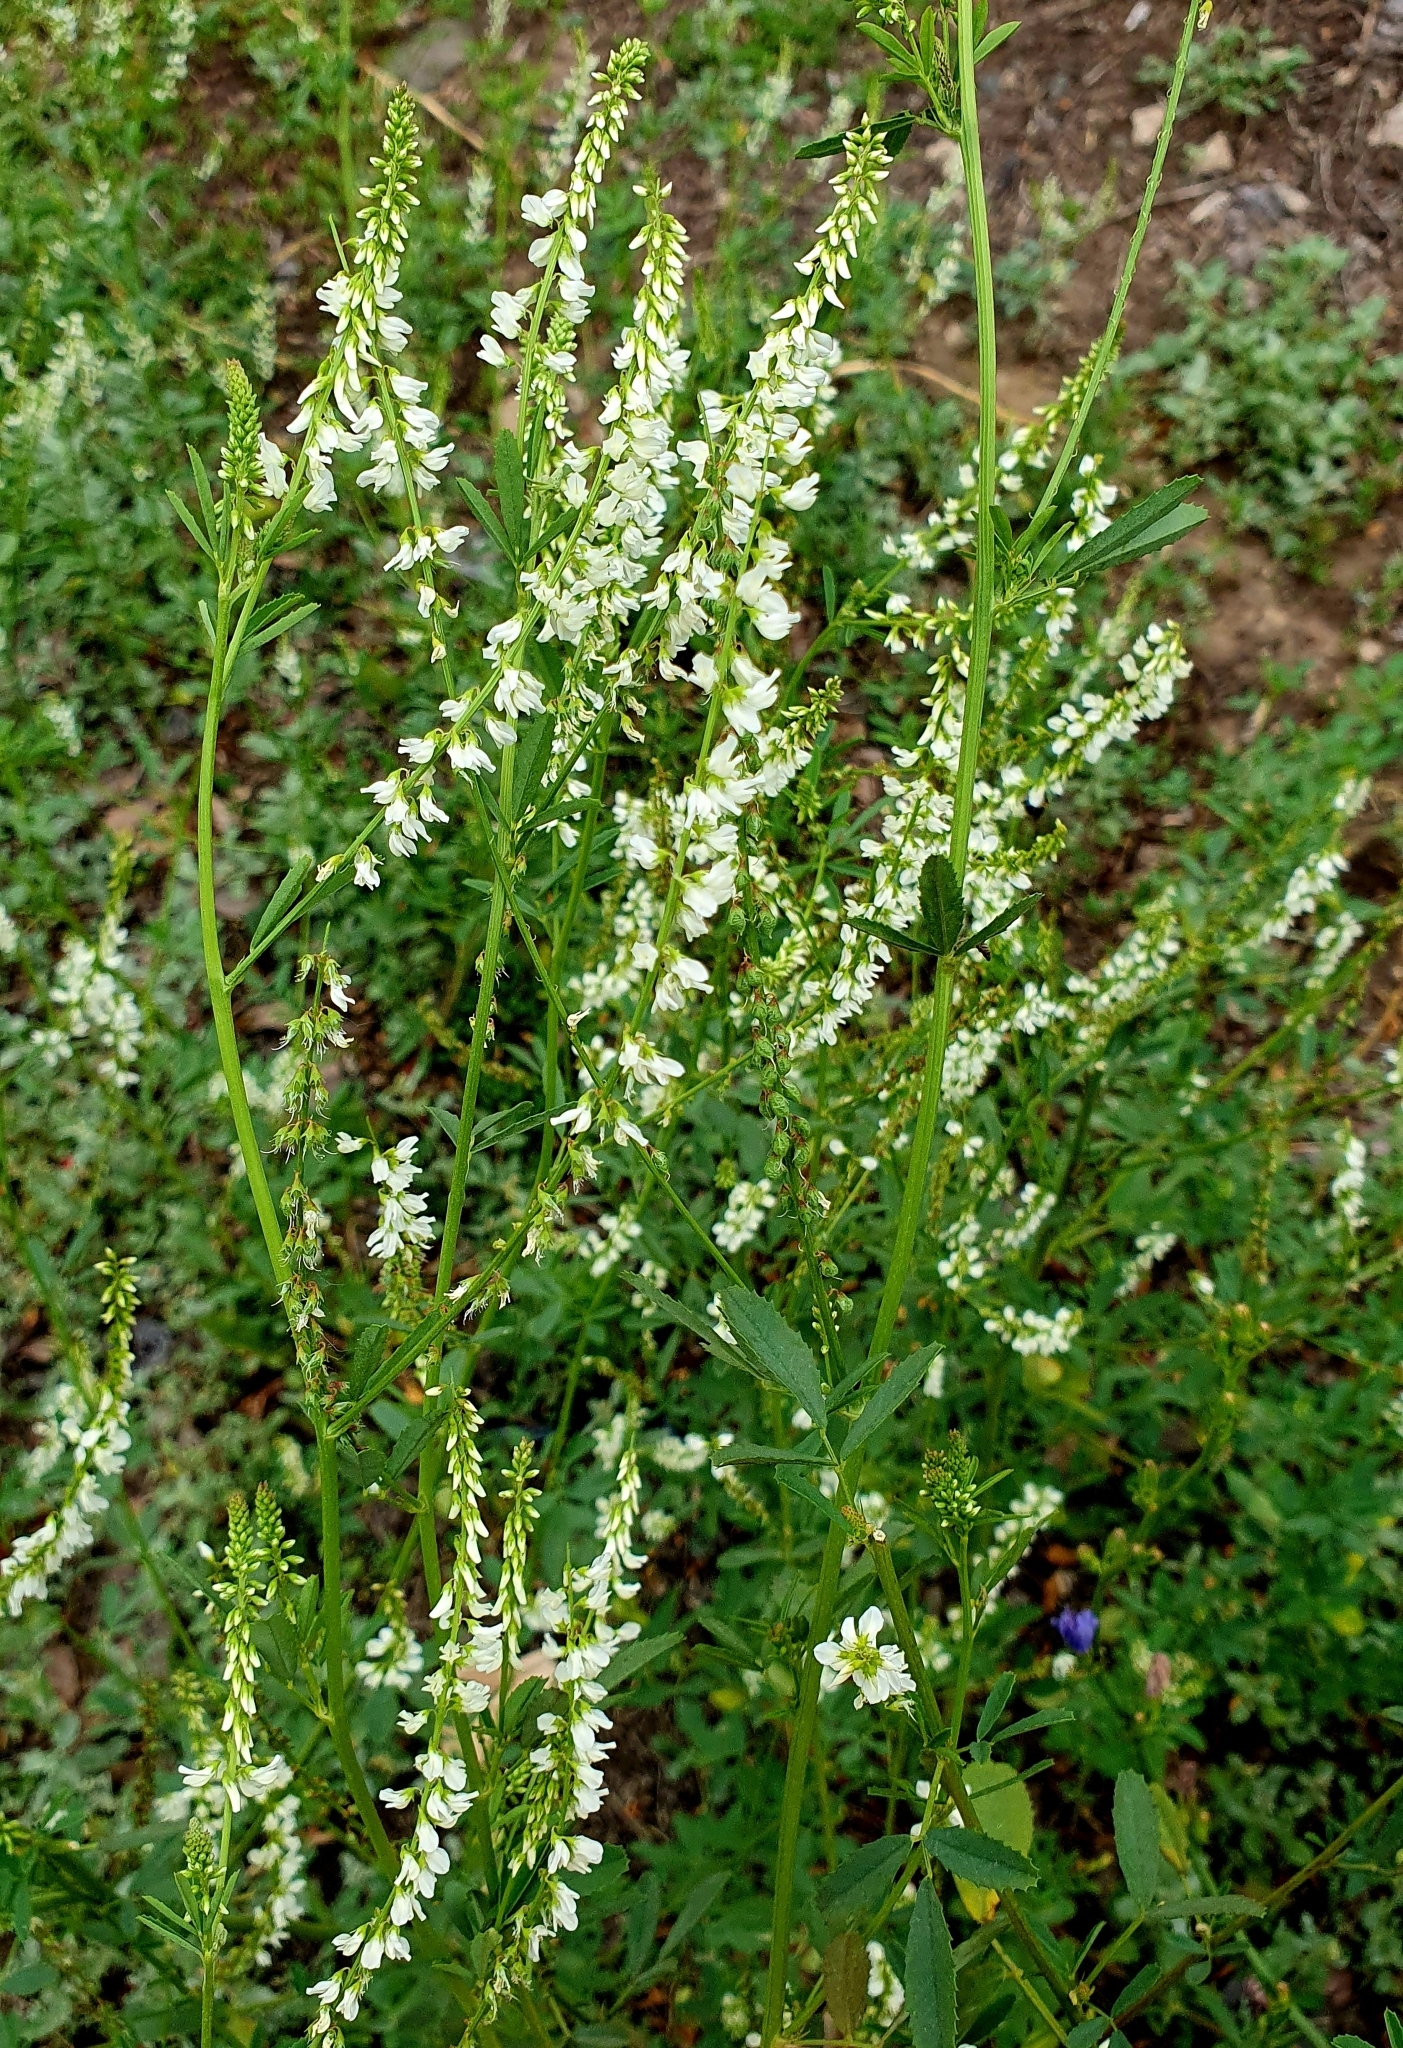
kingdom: Plantae
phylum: Tracheophyta
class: Magnoliopsida
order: Fabales
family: Fabaceae
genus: Melilotus
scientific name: Melilotus albus
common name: White melilot
